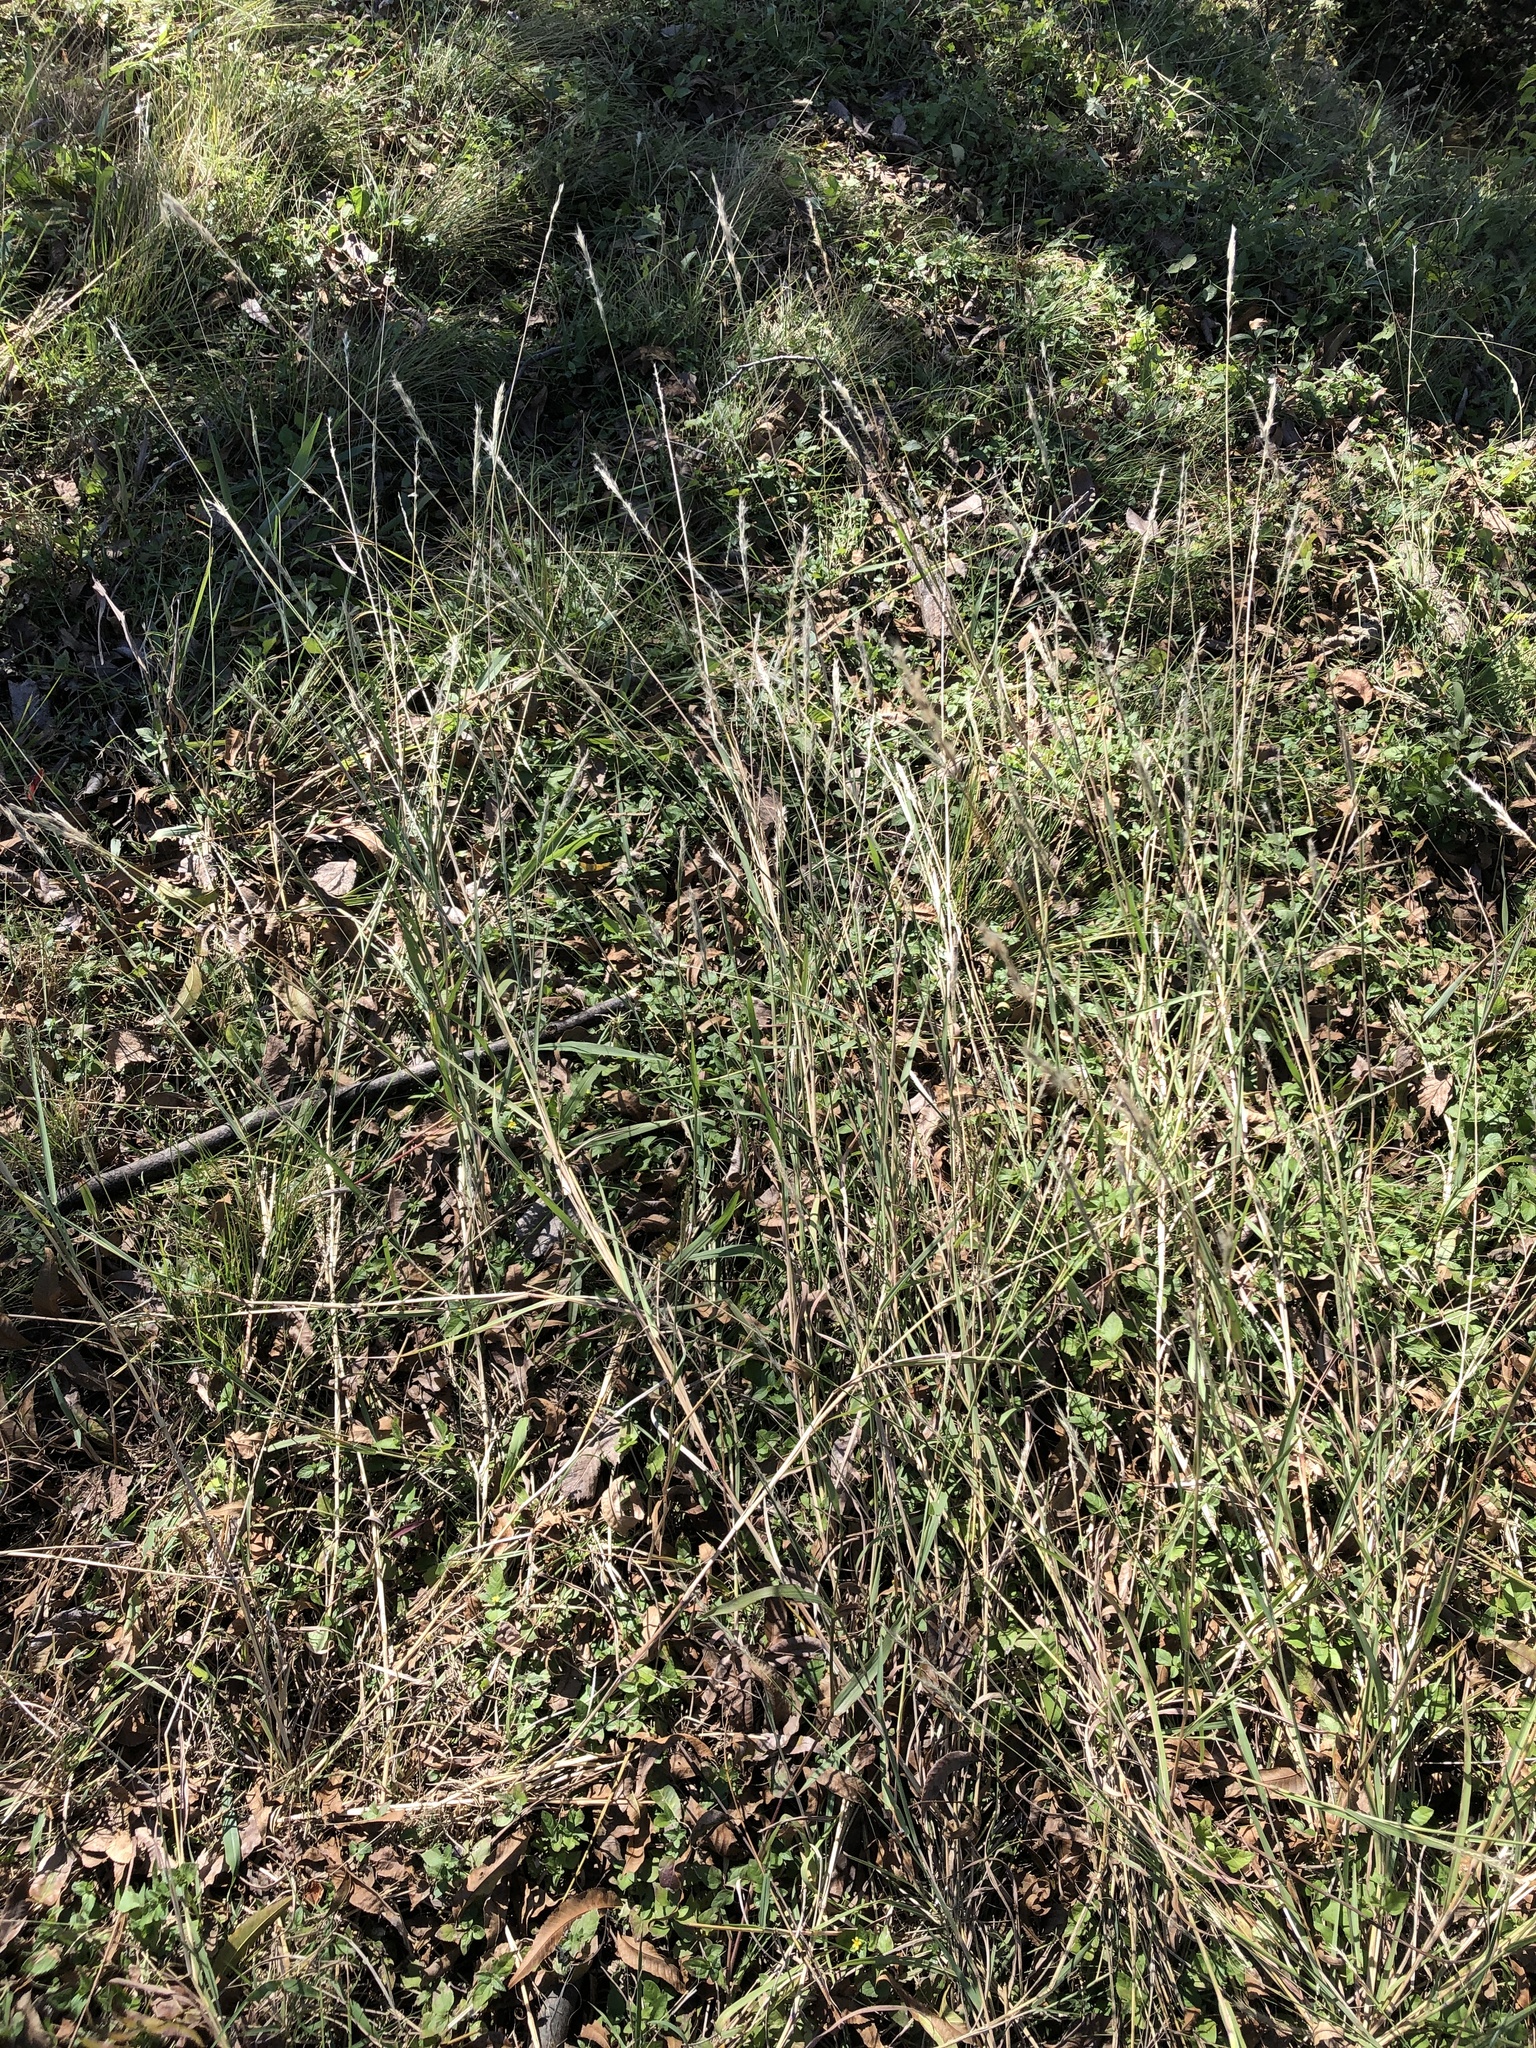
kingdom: Plantae
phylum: Tracheophyta
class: Liliopsida
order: Poales
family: Poaceae
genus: Bothriochloa
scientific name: Bothriochloa torreyana
